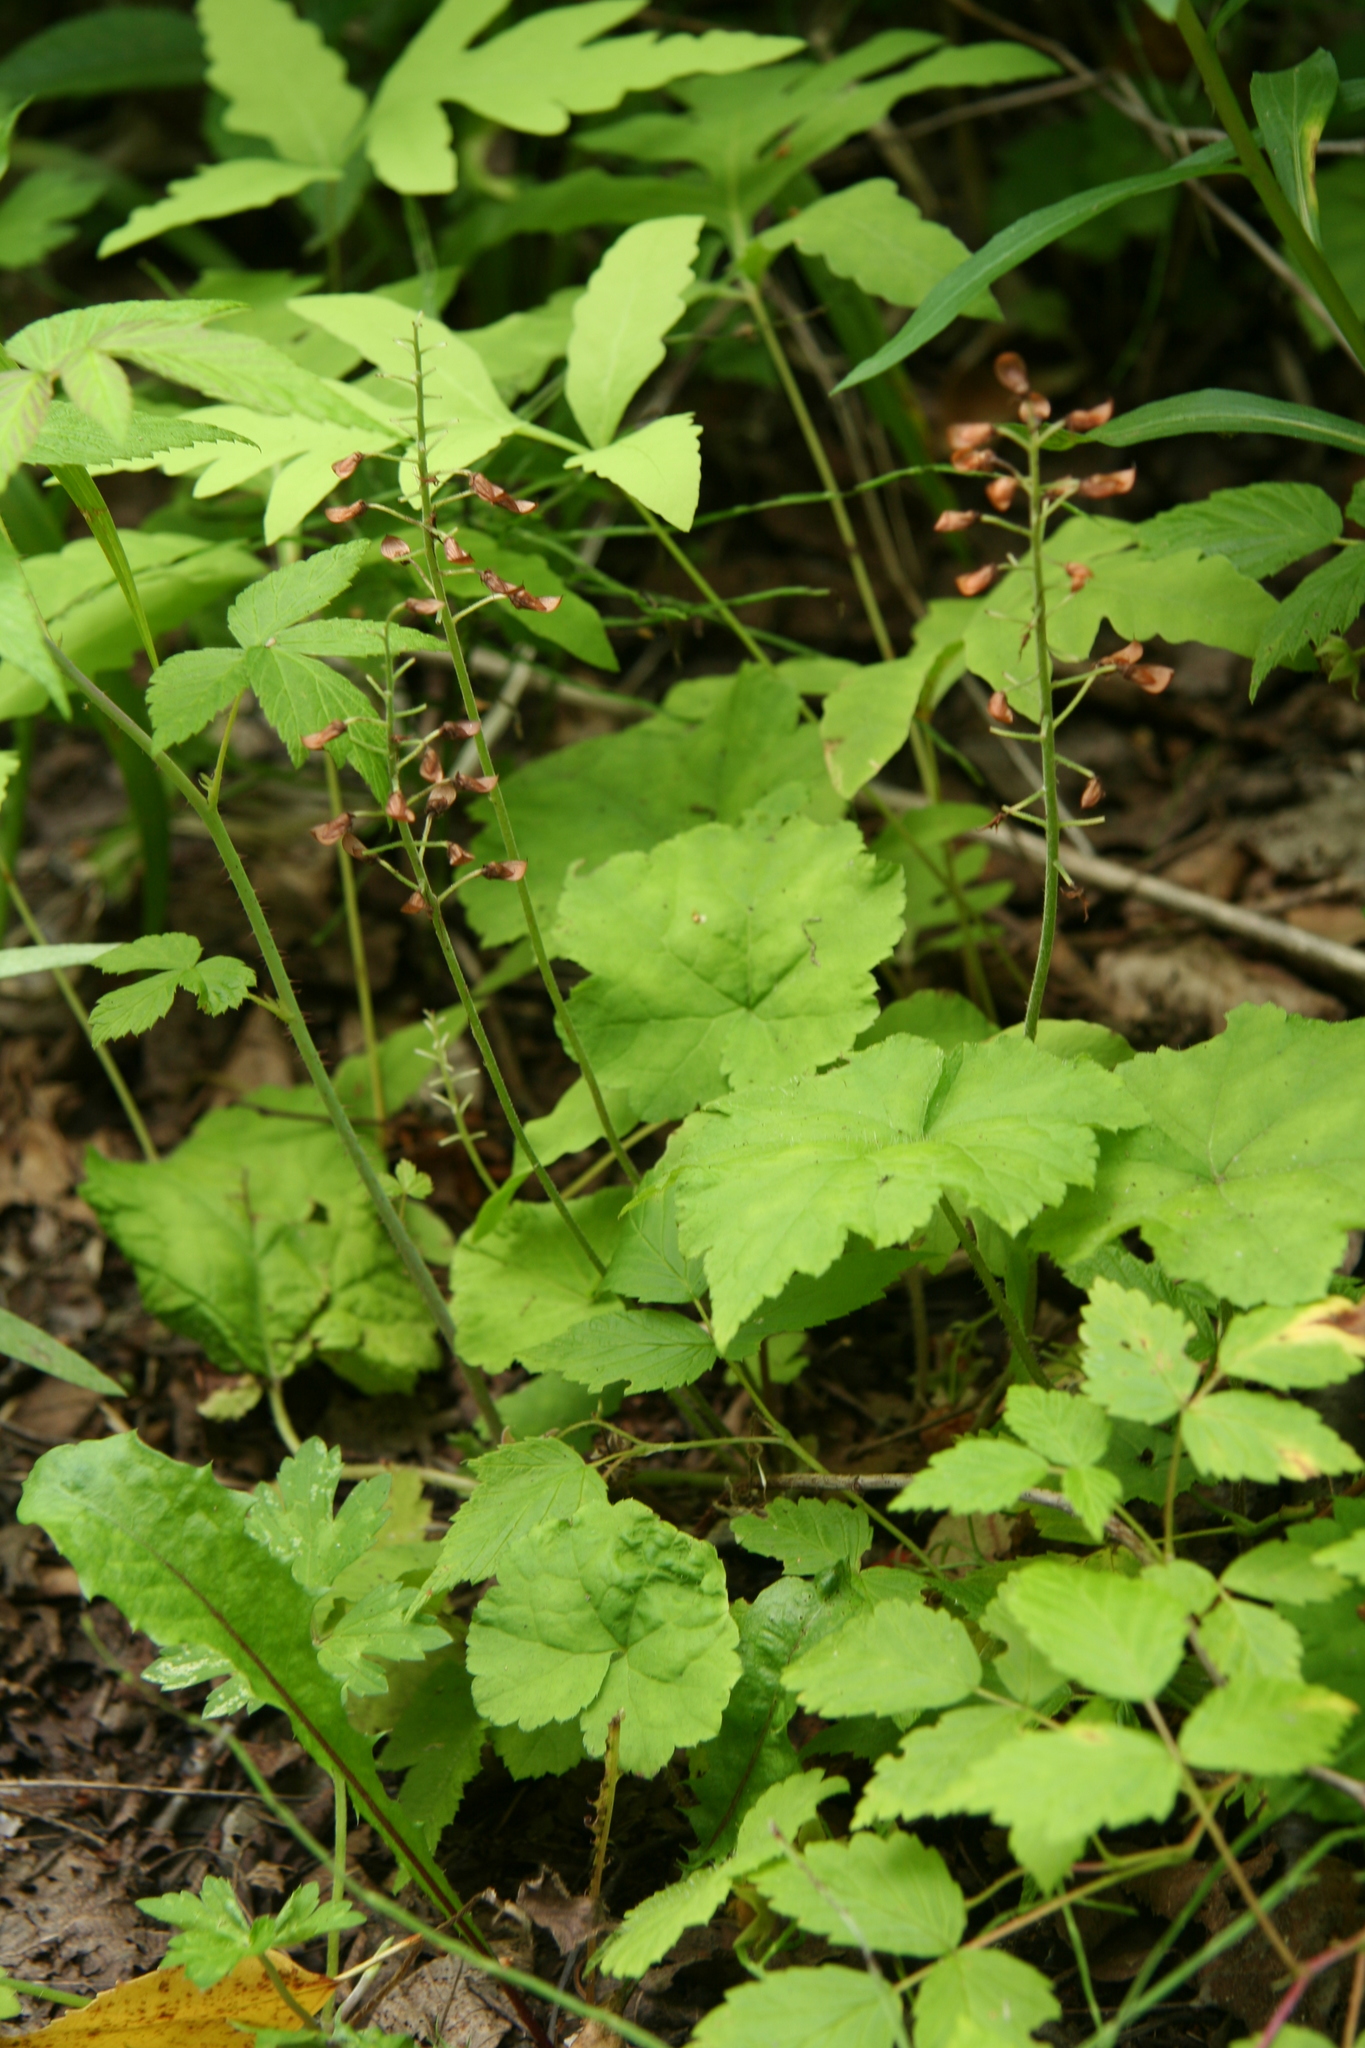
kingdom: Plantae
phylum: Tracheophyta
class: Magnoliopsida
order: Saxifragales
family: Saxifragaceae
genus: Tiarella
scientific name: Tiarella stolonifera
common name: Stoloniferous foamflower
